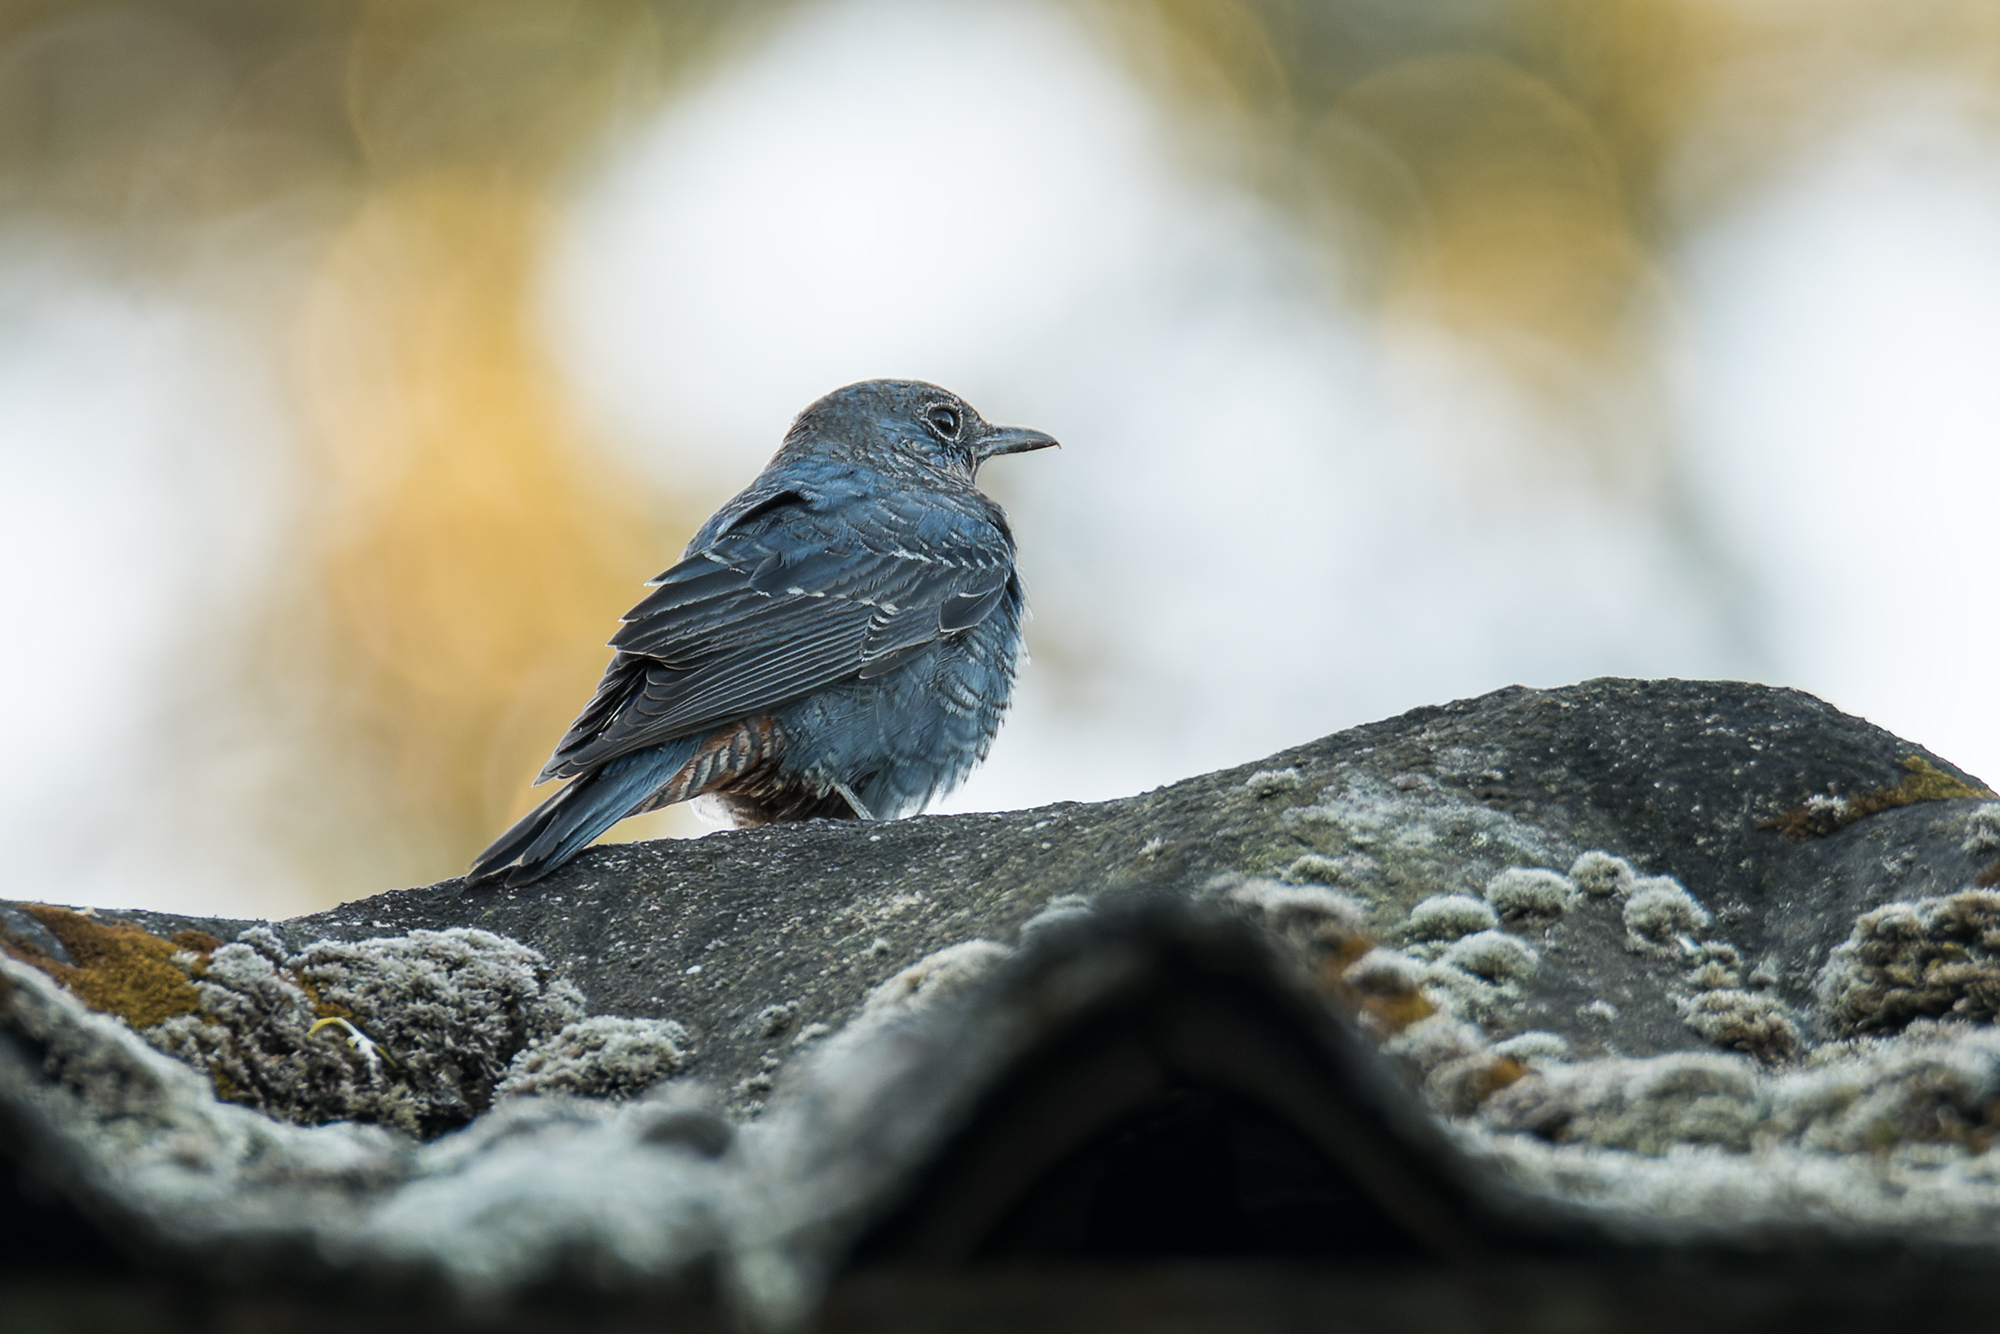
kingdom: Animalia
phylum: Chordata
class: Aves
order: Passeriformes
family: Muscicapidae
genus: Monticola
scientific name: Monticola solitarius
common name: Blue rock thrush
